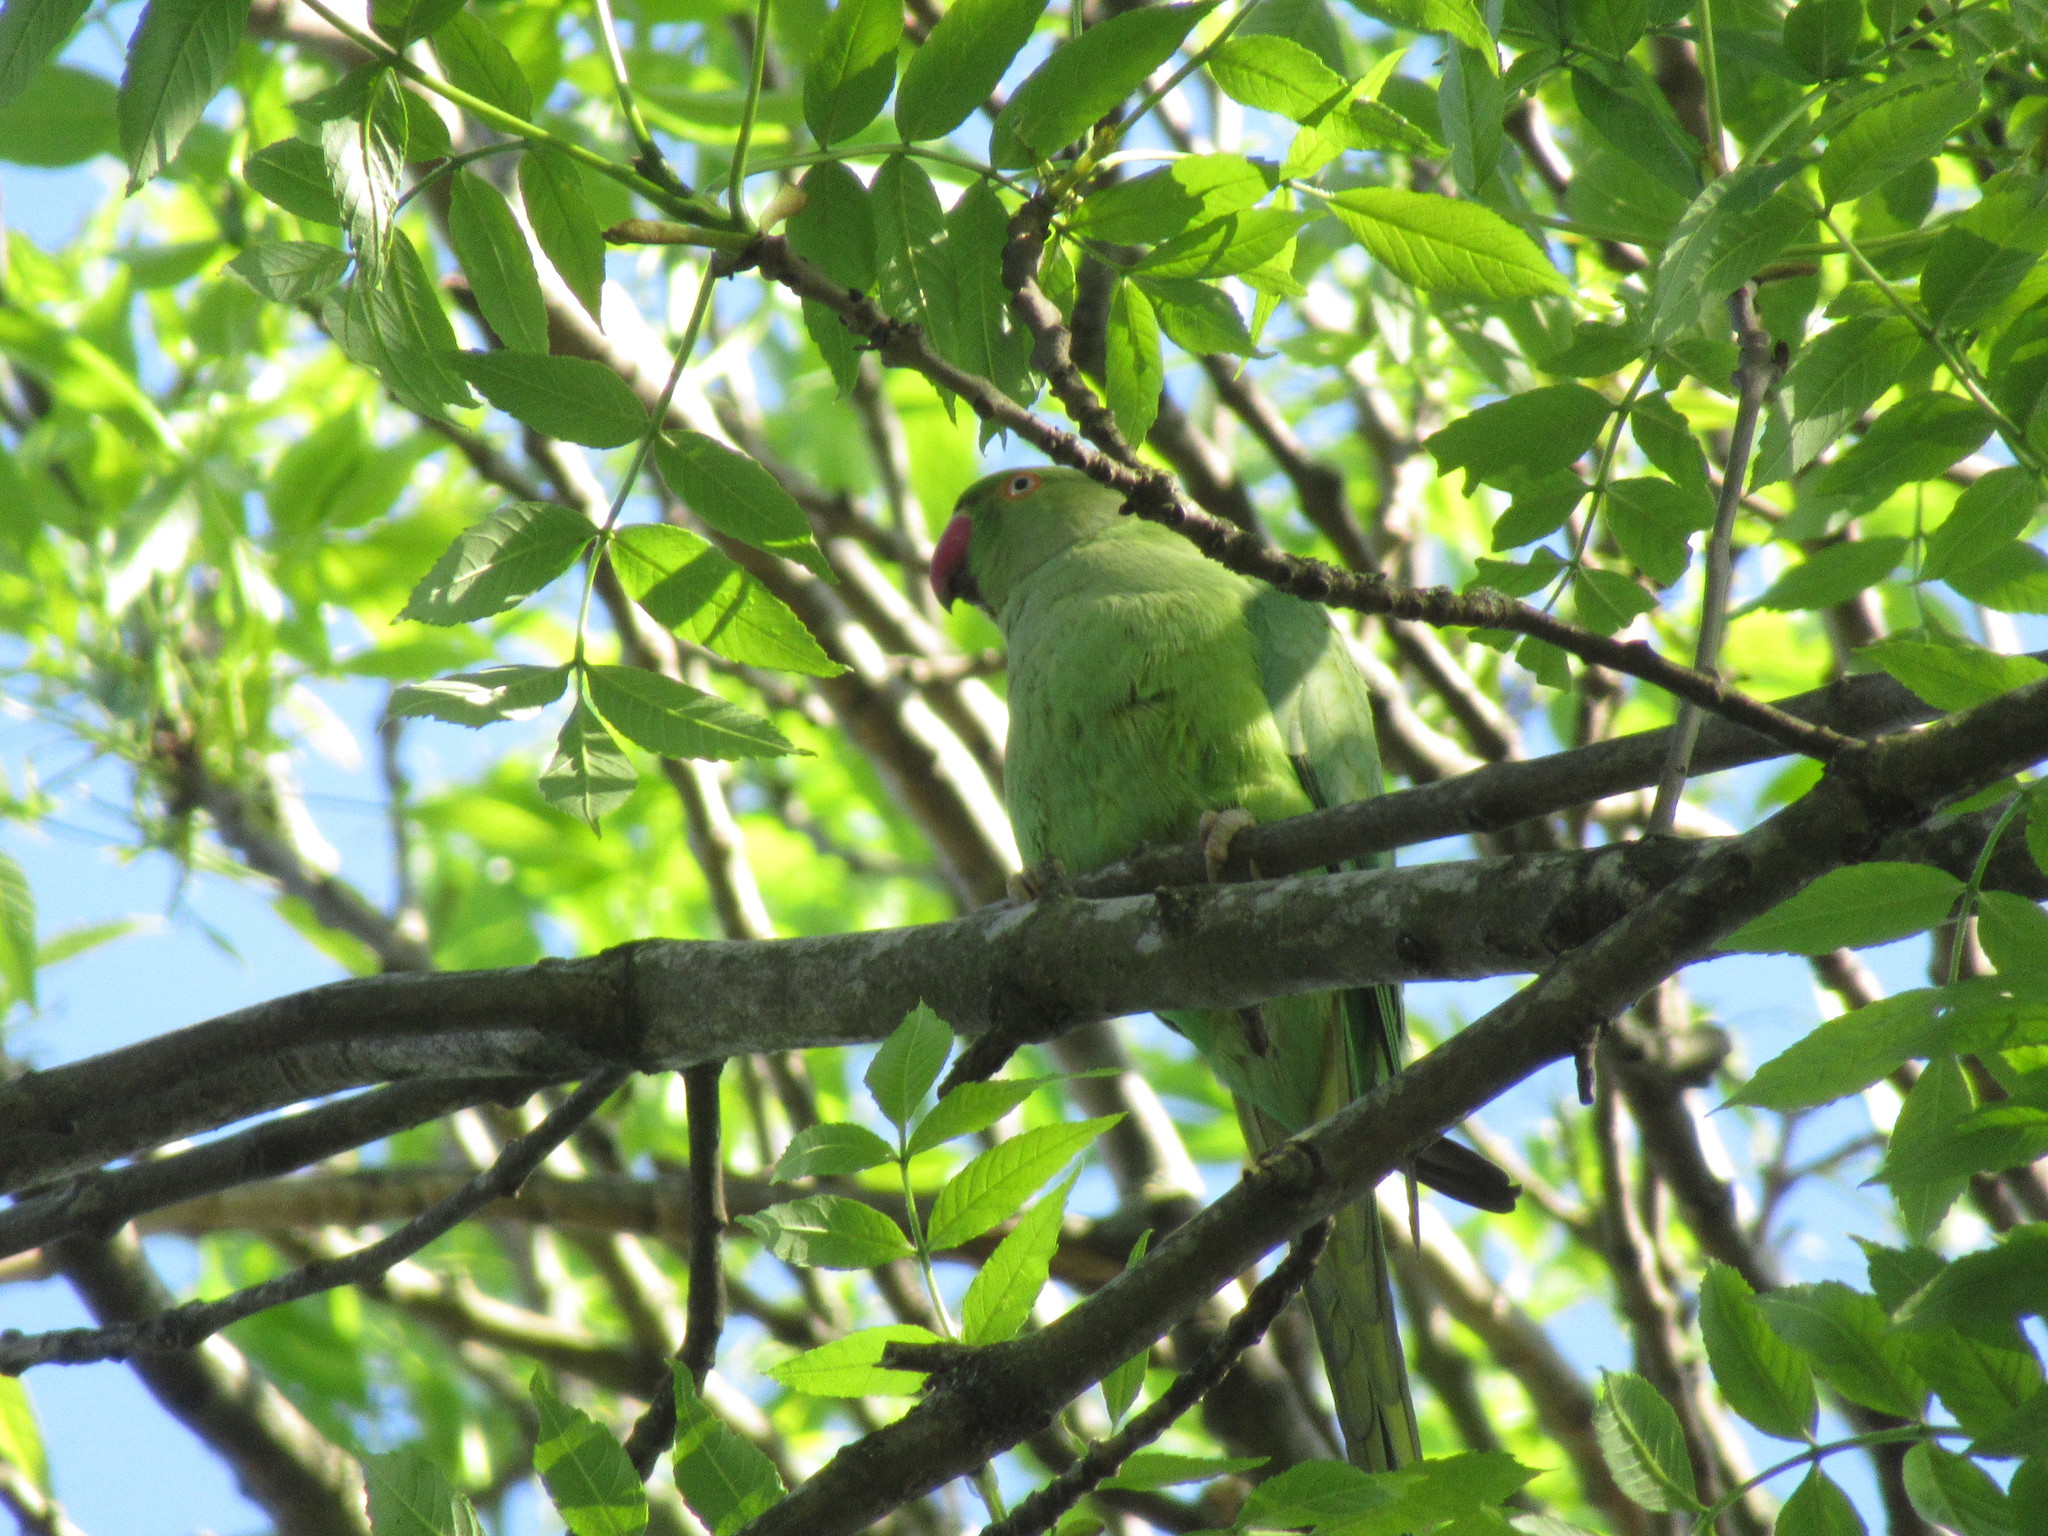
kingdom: Animalia
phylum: Chordata
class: Aves
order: Psittaciformes
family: Psittacidae
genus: Psittacula
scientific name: Psittacula krameri
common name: Rose-ringed parakeet
